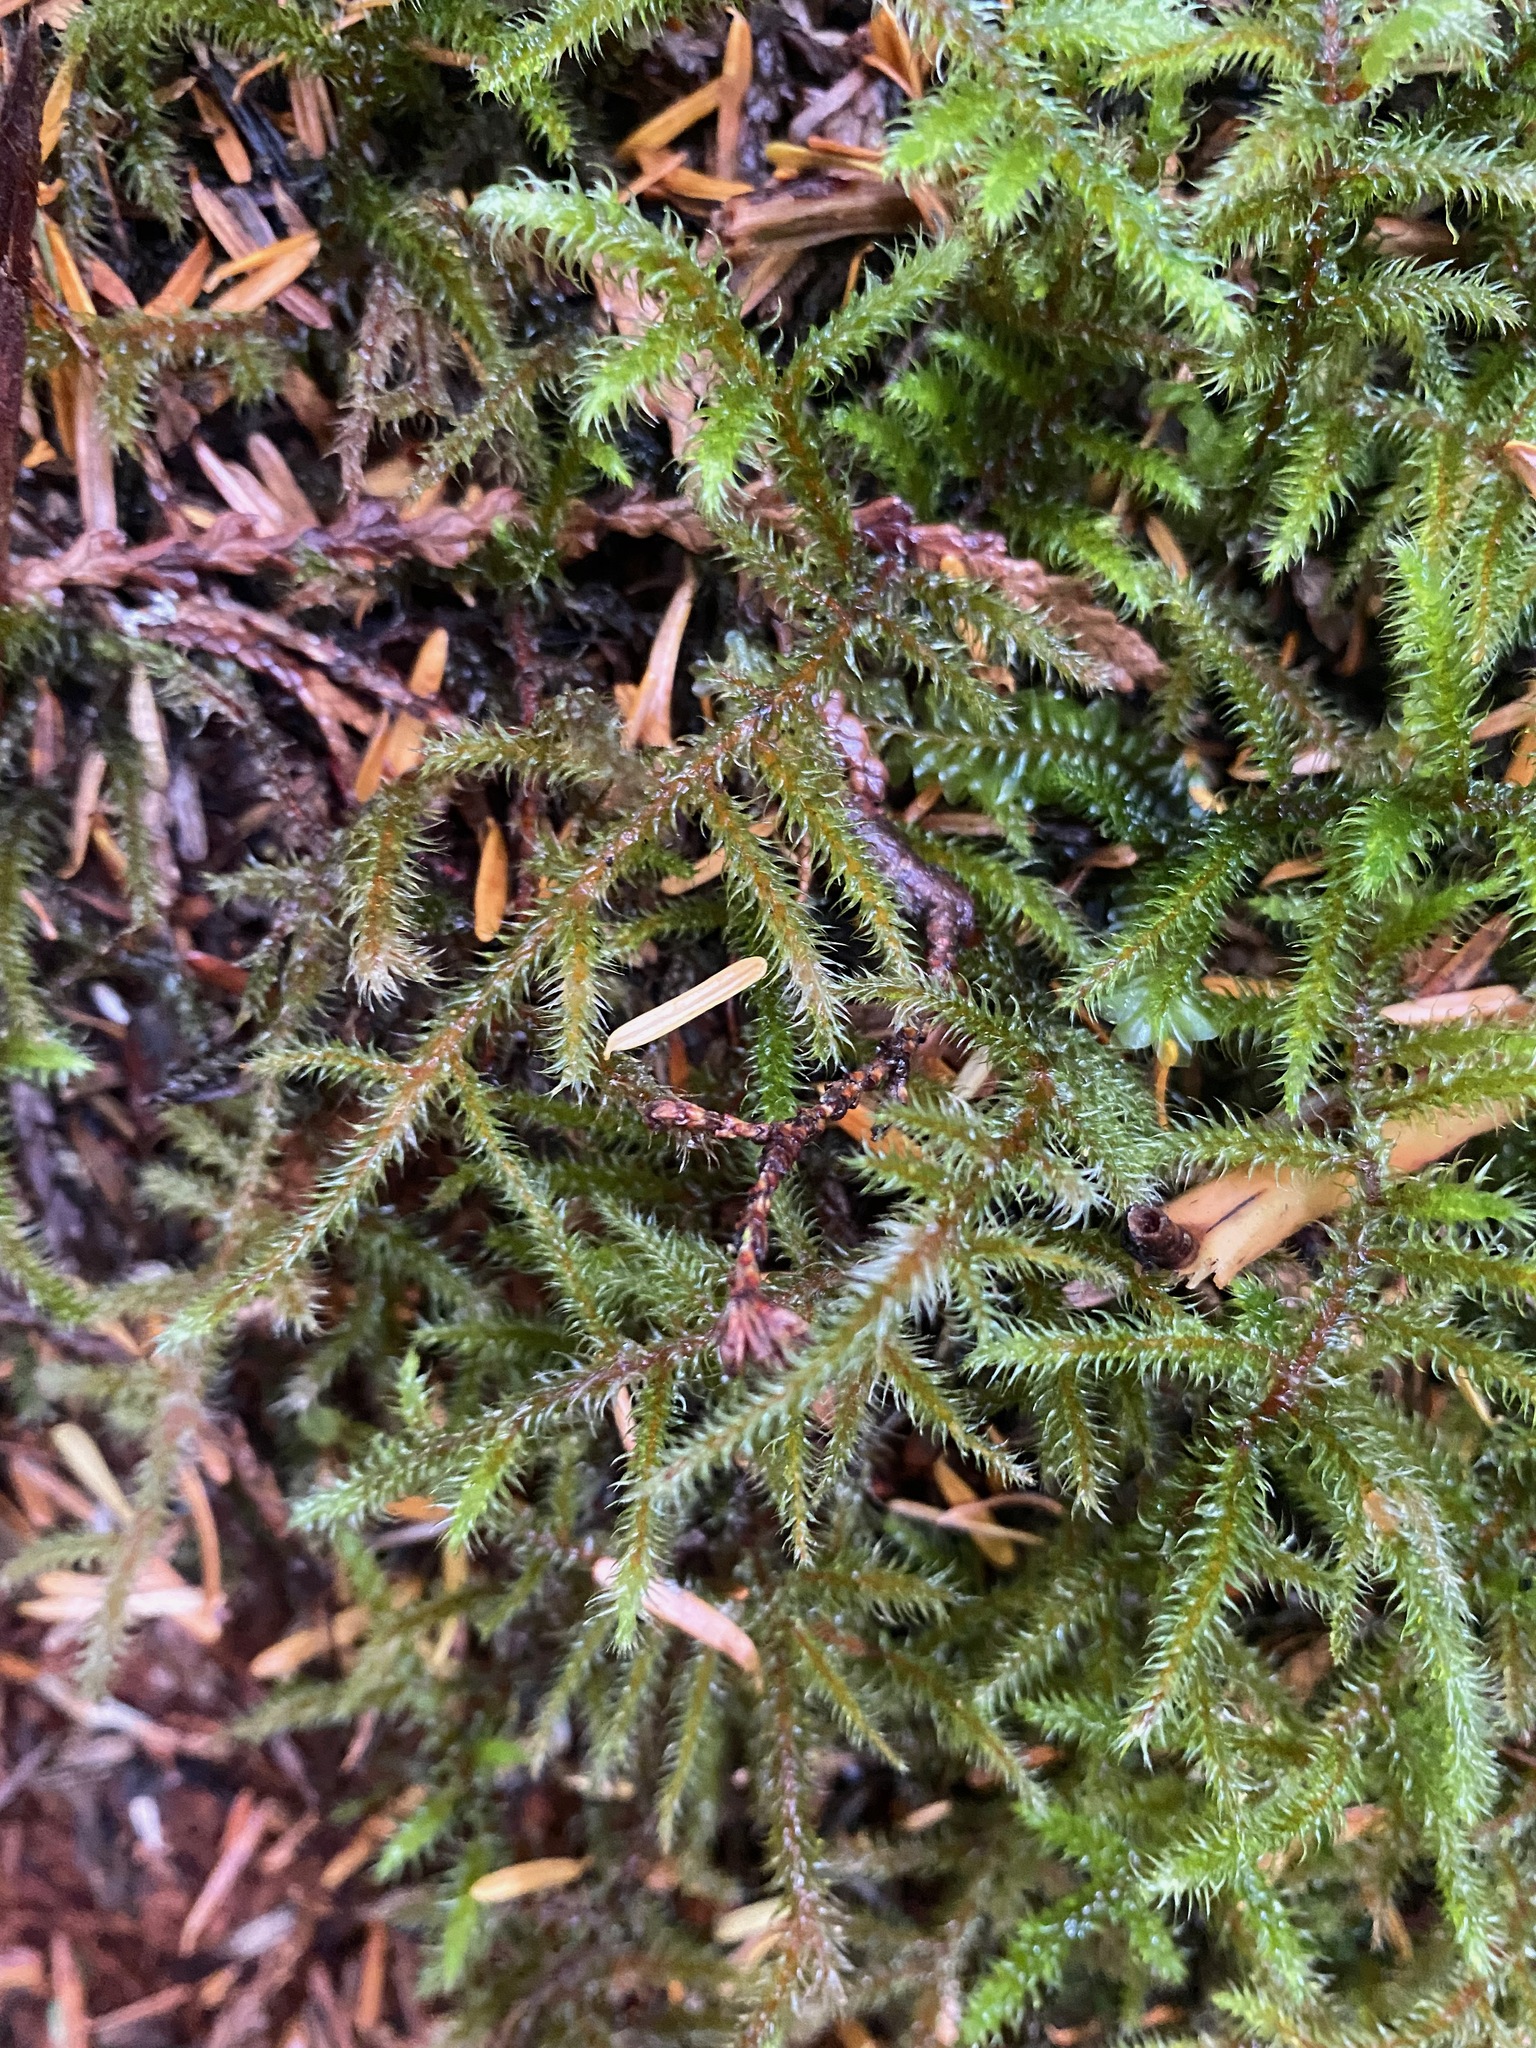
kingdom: Plantae
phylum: Bryophyta
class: Bryopsida
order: Hypnales
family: Hylocomiaceae
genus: Rhytidiadelphus
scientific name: Rhytidiadelphus loreus
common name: Lanky moss
